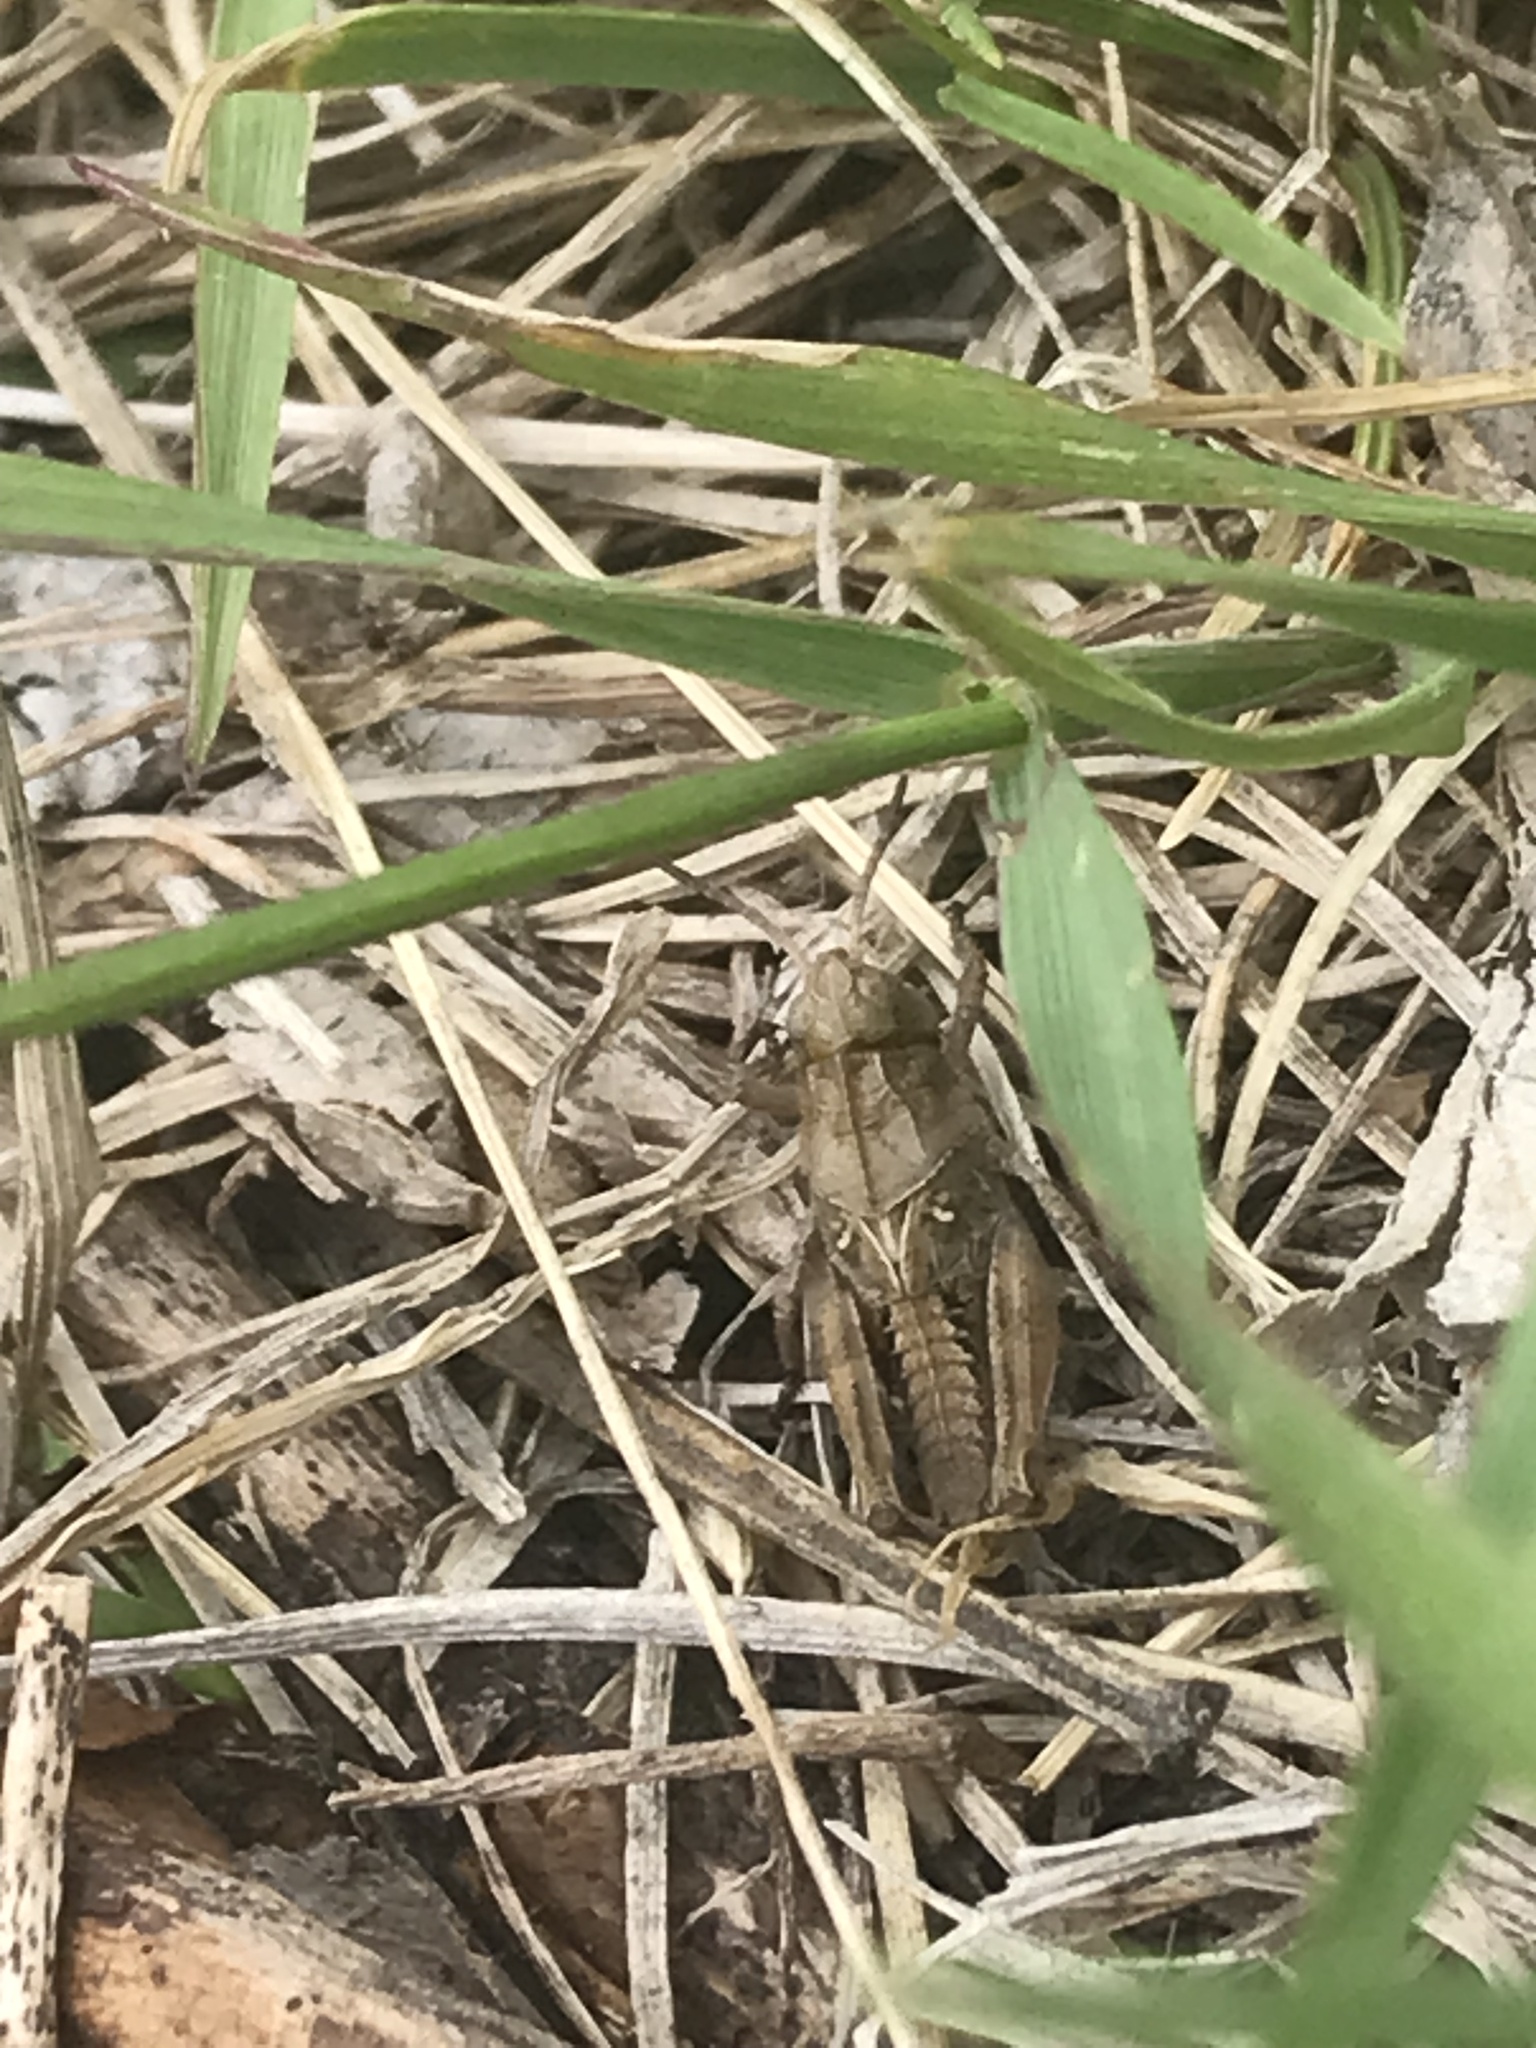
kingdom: Animalia
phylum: Arthropoda
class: Insecta
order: Orthoptera
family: Acrididae
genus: Camnula
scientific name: Camnula pellucida
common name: Clear-winged grasshopper
